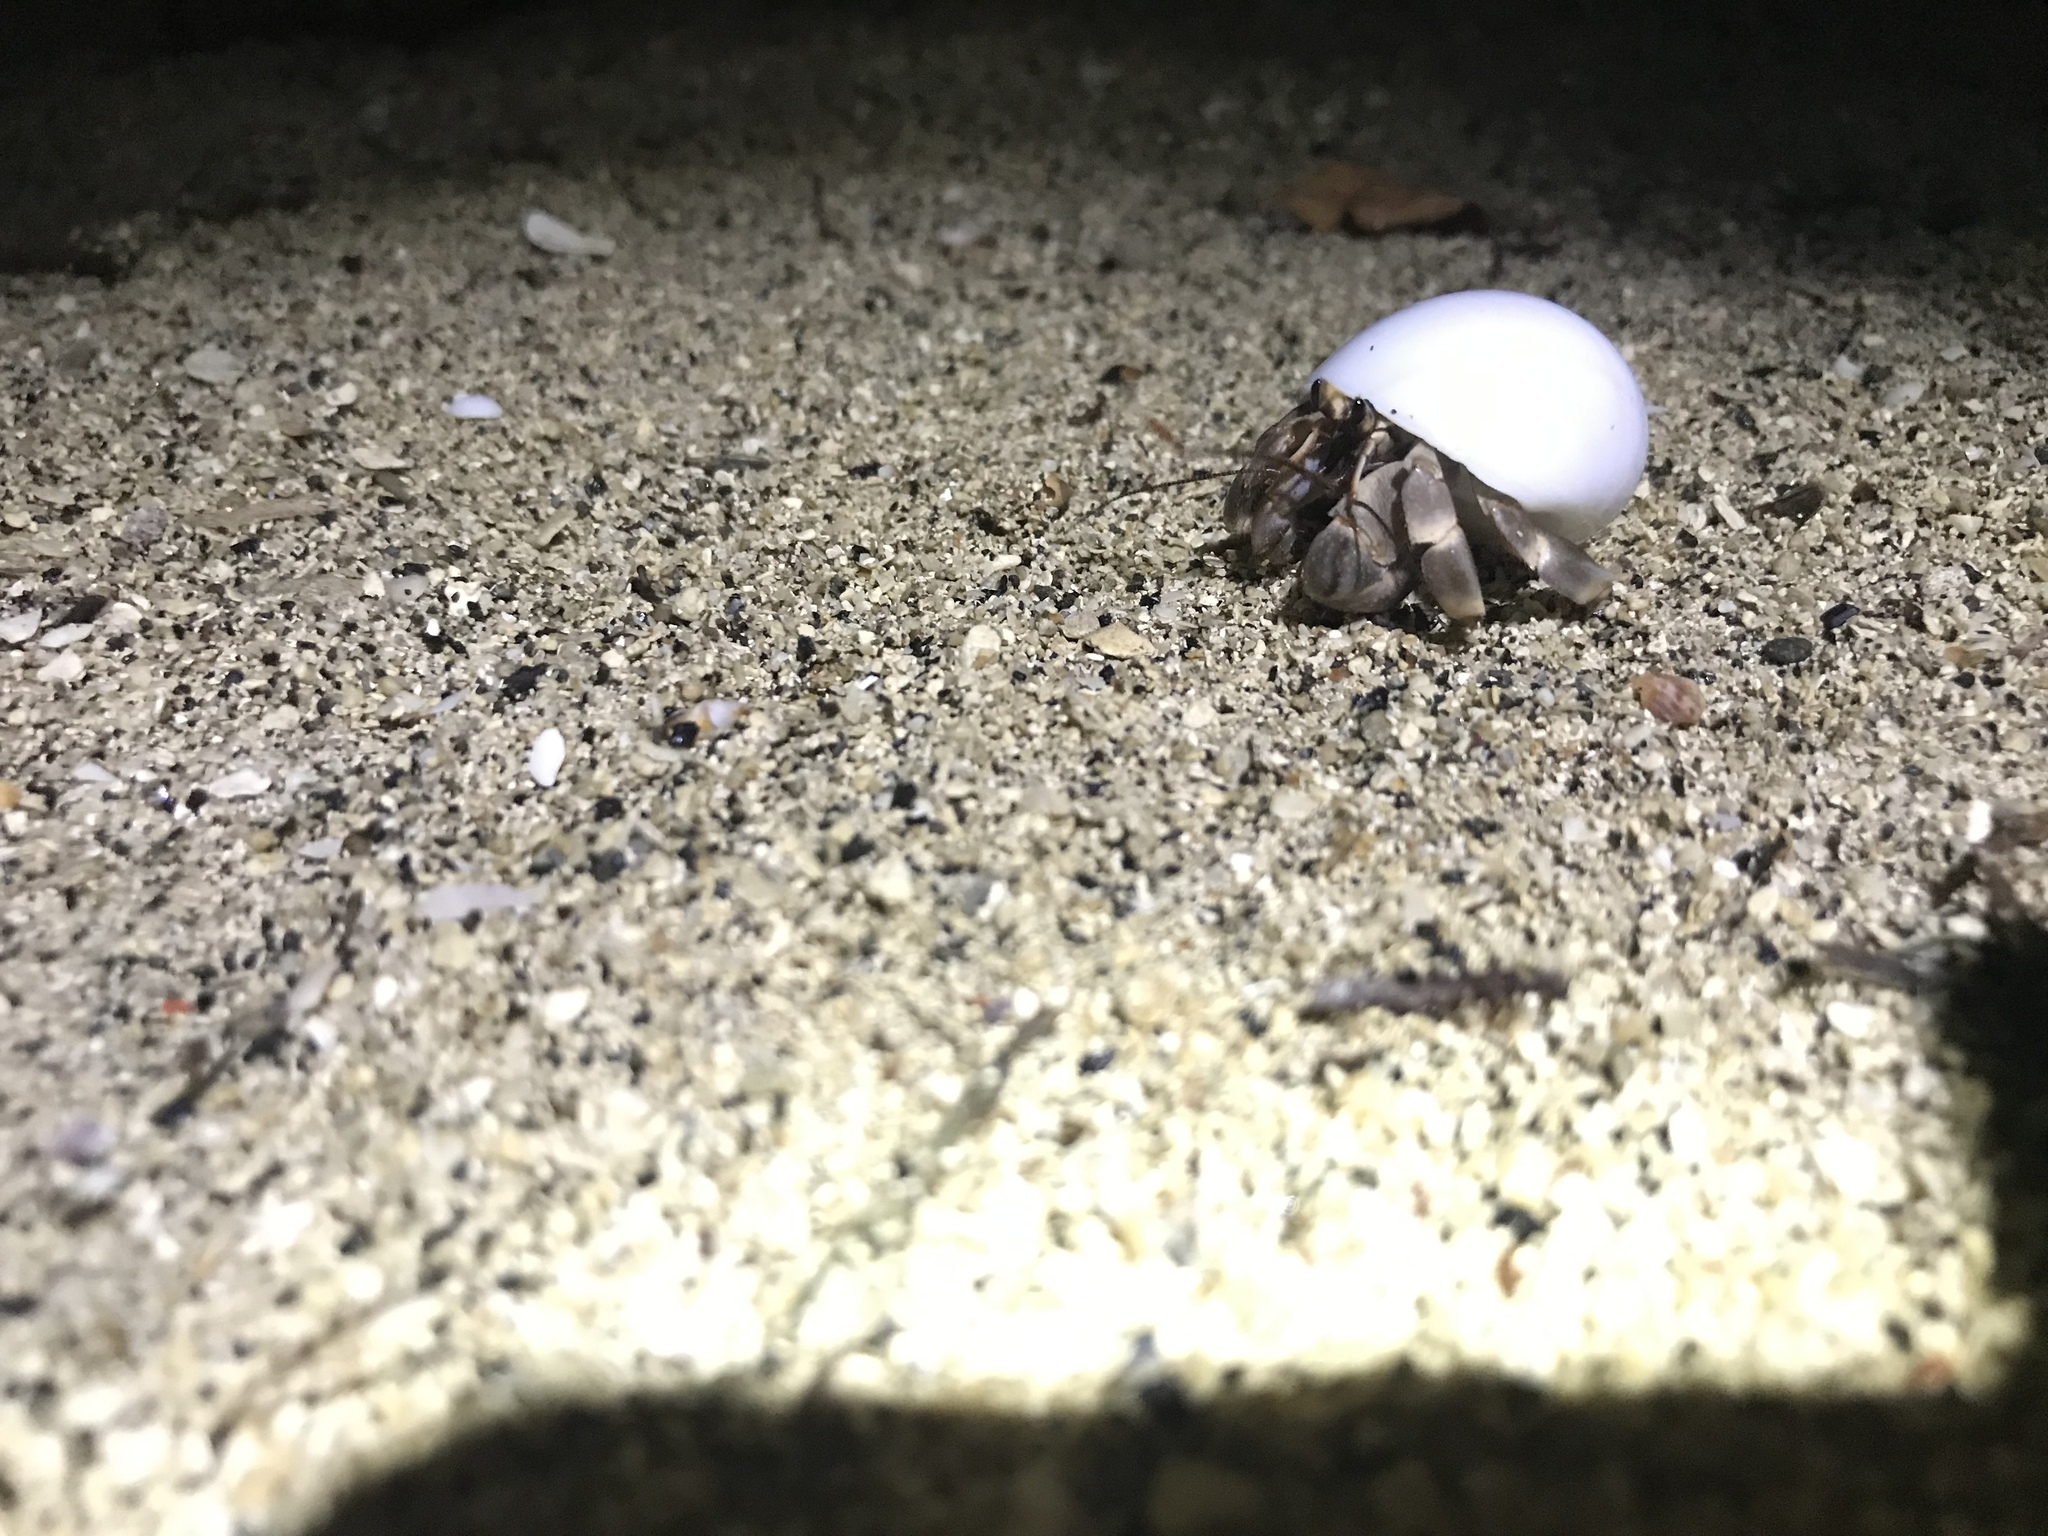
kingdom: Animalia
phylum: Arthropoda
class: Malacostraca
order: Decapoda
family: Coenobitidae
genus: Coenobita
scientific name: Coenobita rugosus
